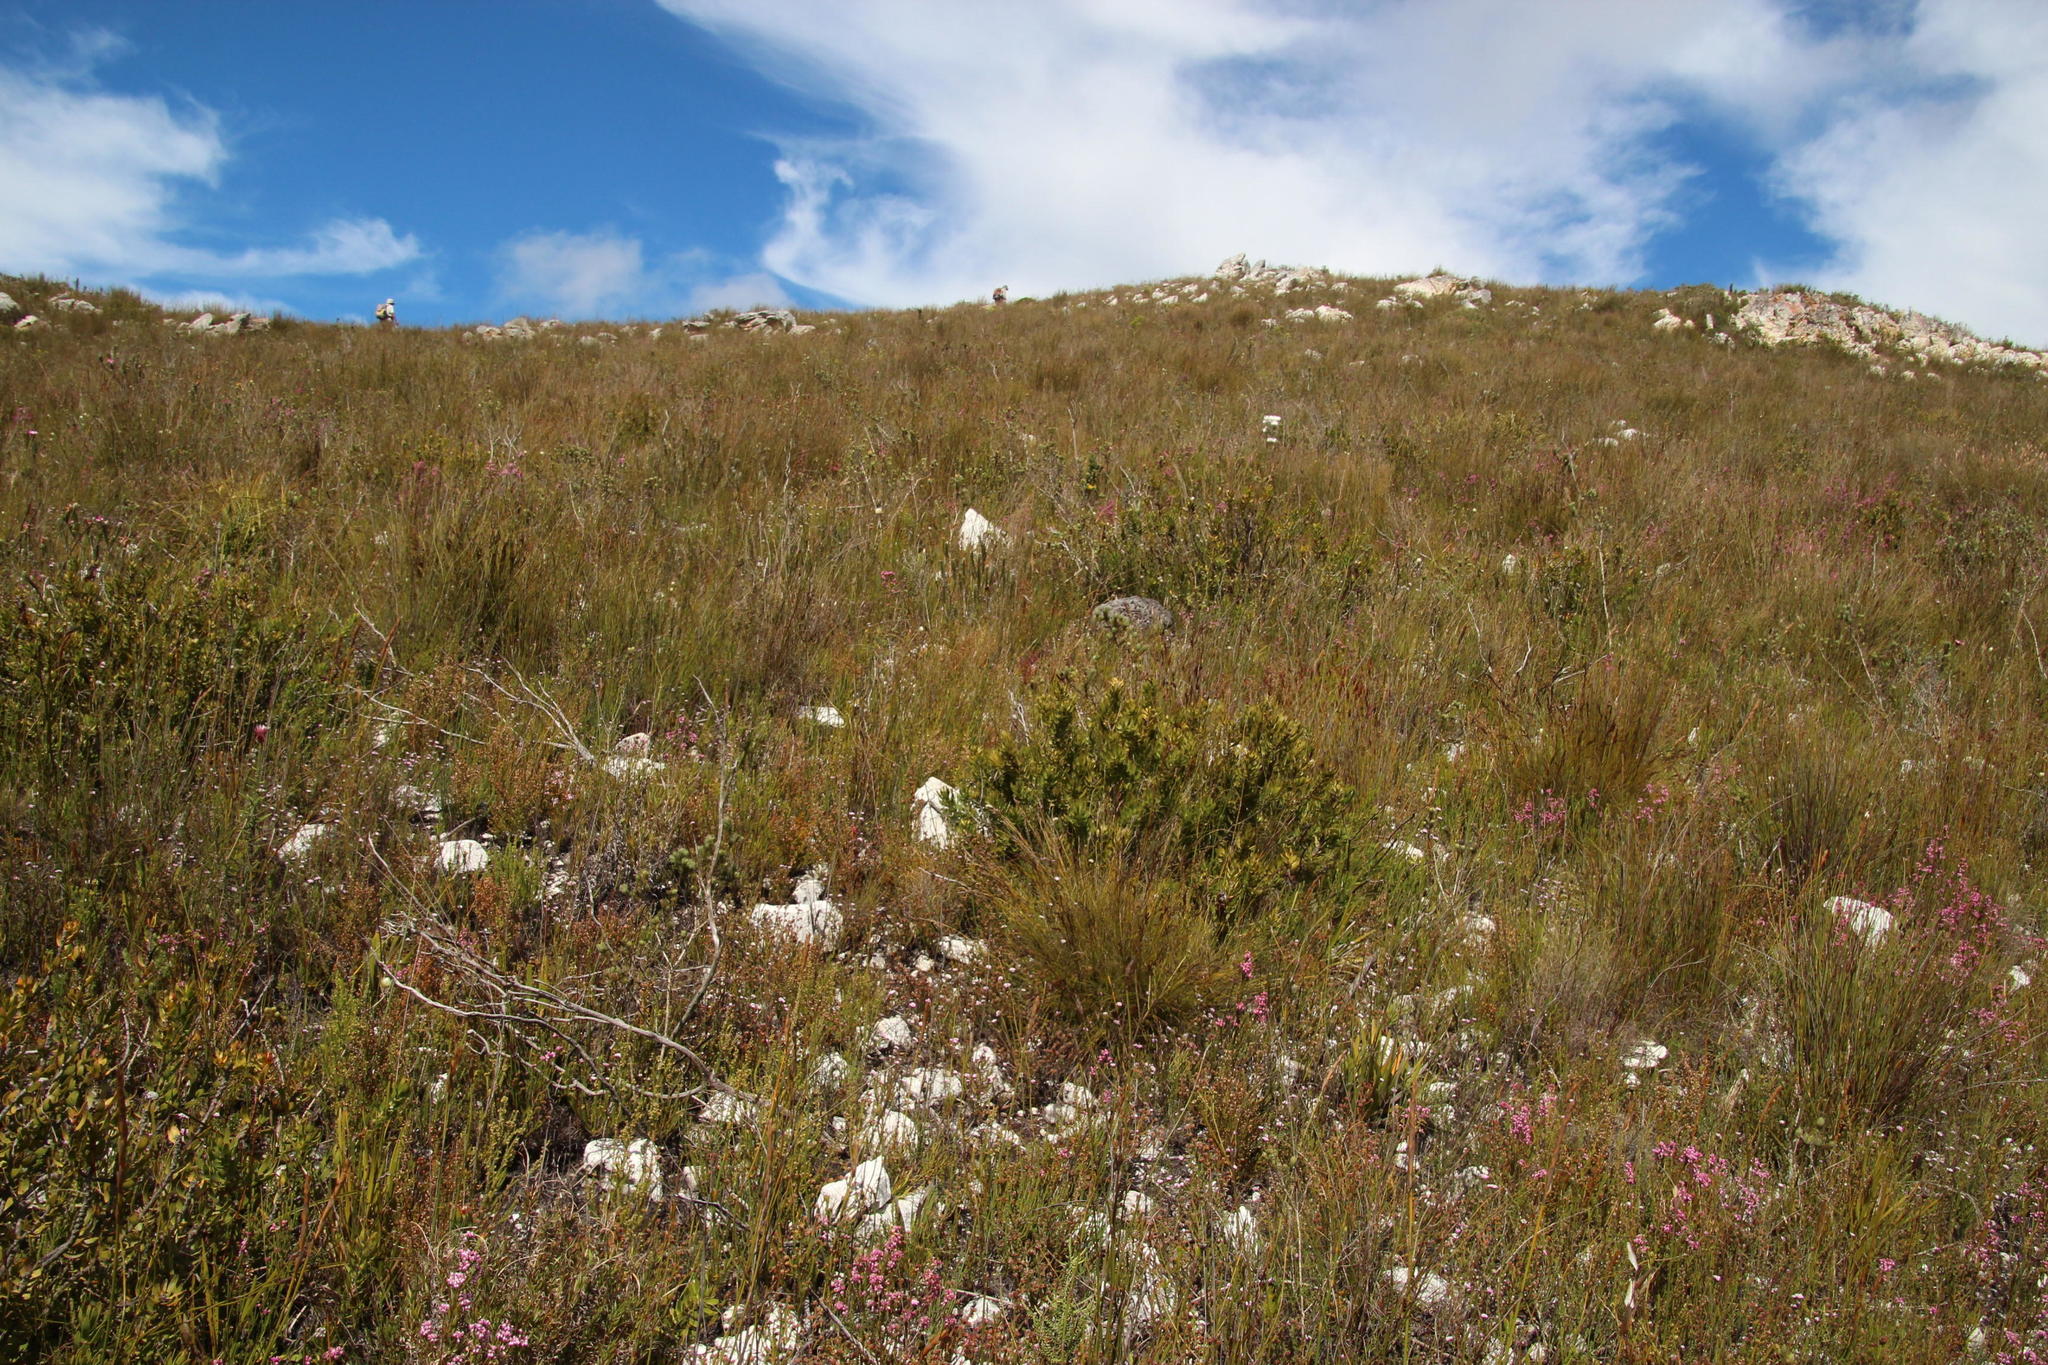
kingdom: Plantae
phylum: Tracheophyta
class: Magnoliopsida
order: Proteales
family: Proteaceae
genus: Mimetes
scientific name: Mimetes cucullatus
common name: Common pagoda
